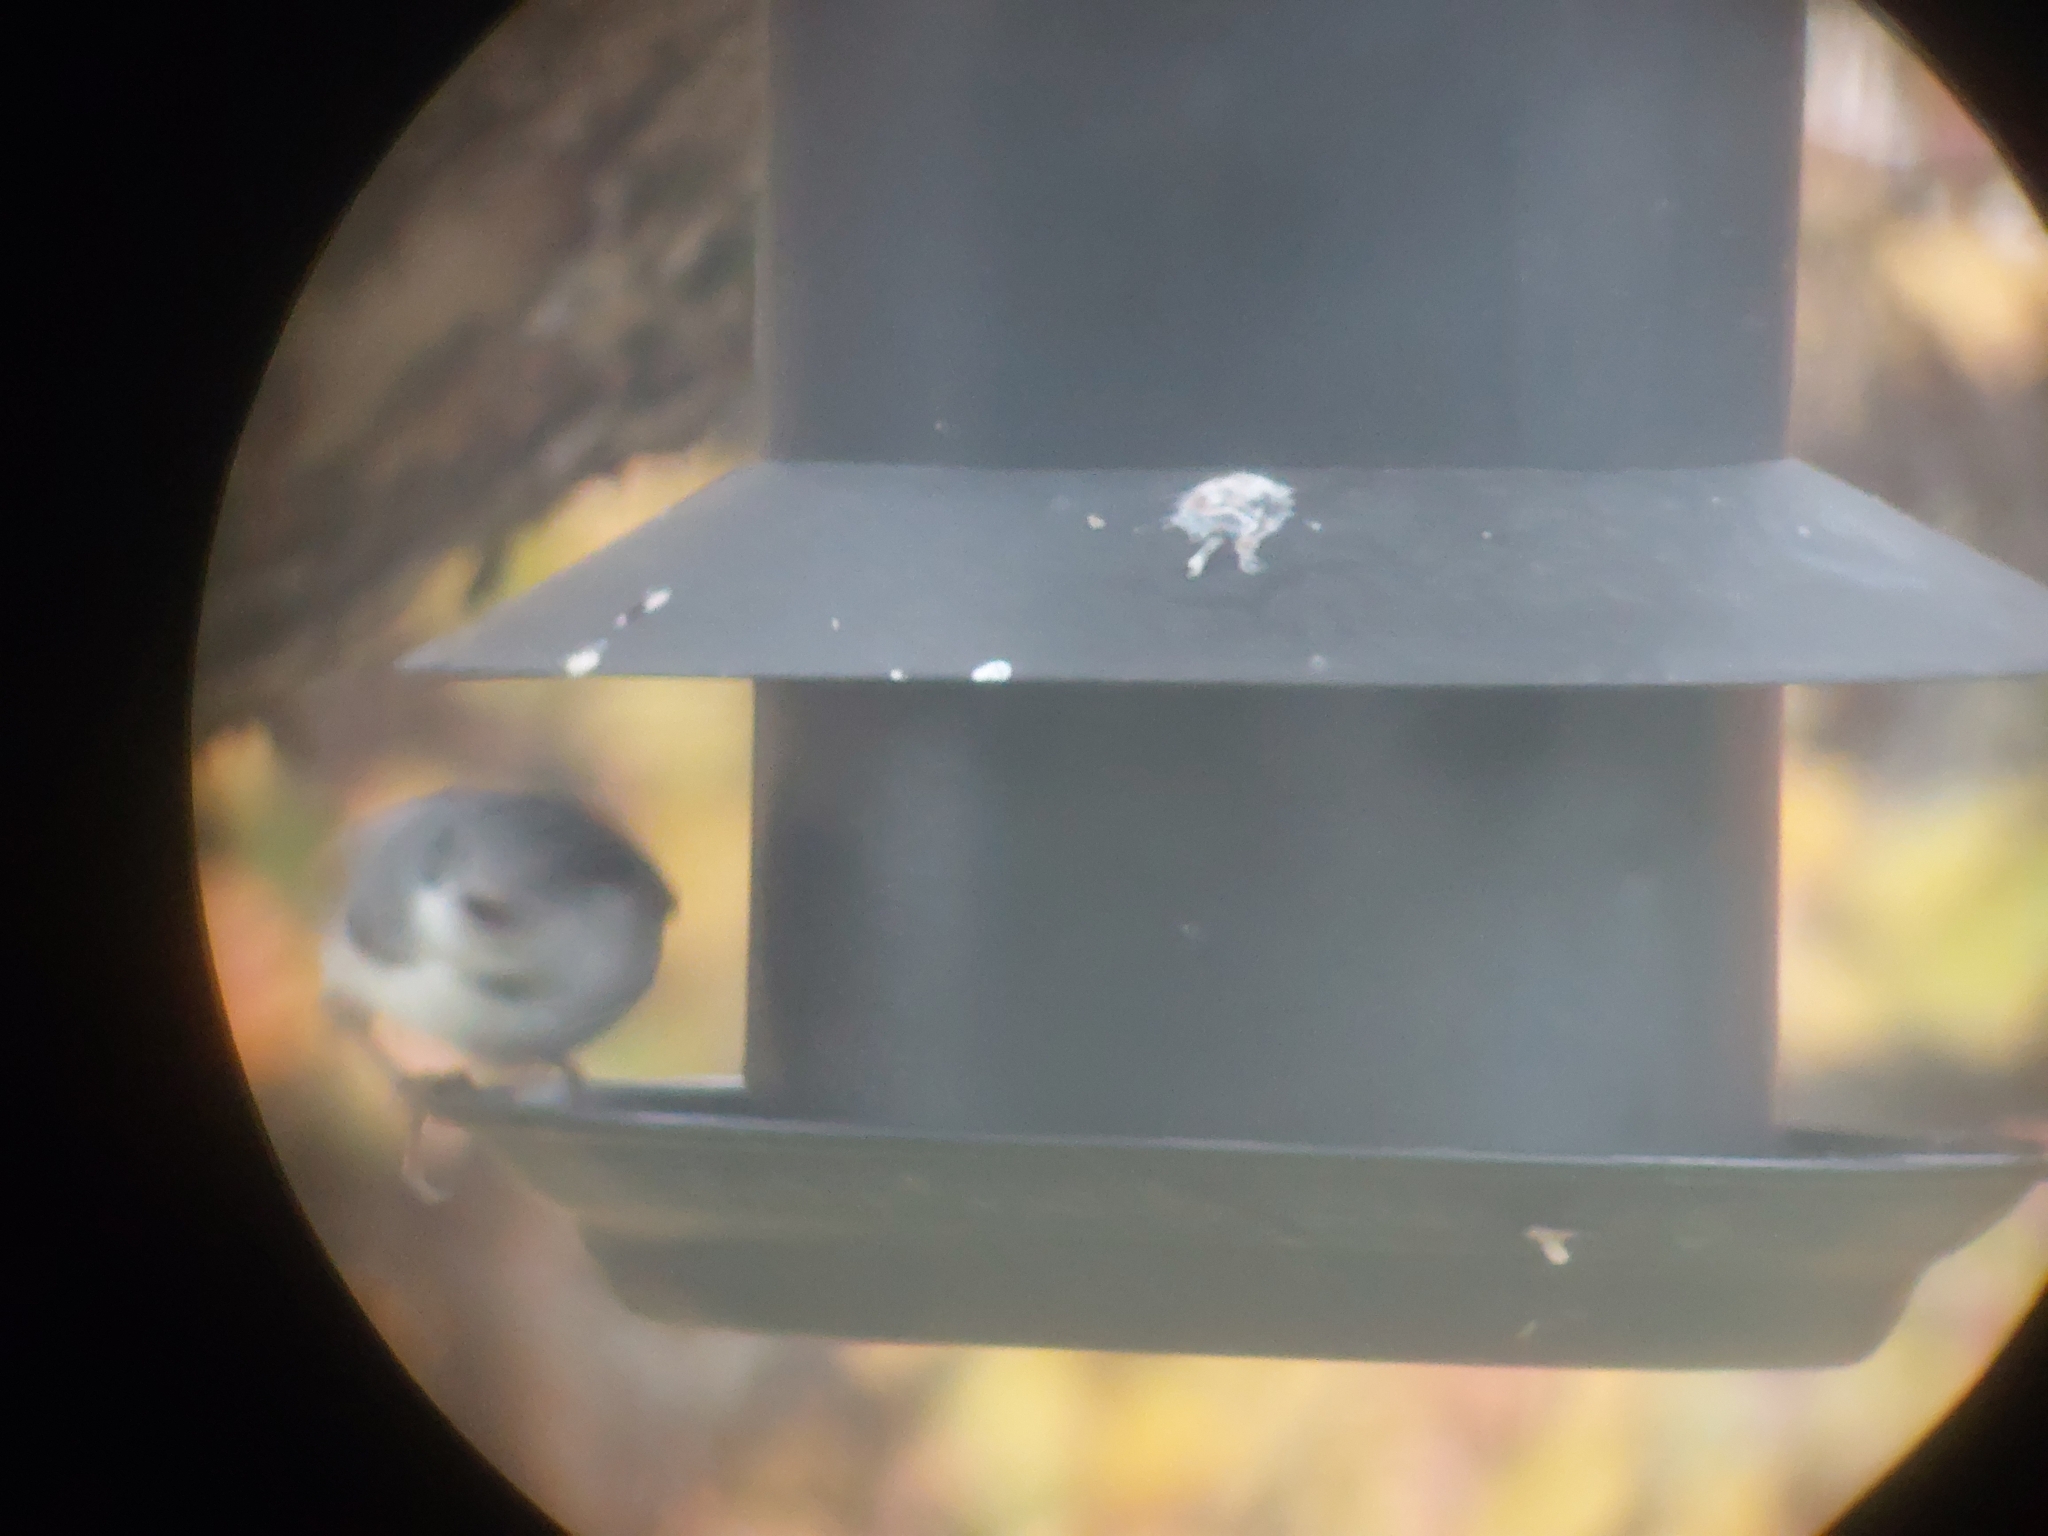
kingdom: Animalia
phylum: Chordata
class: Aves
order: Passeriformes
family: Sittidae
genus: Sitta
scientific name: Sitta europaea
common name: Eurasian nuthatch
